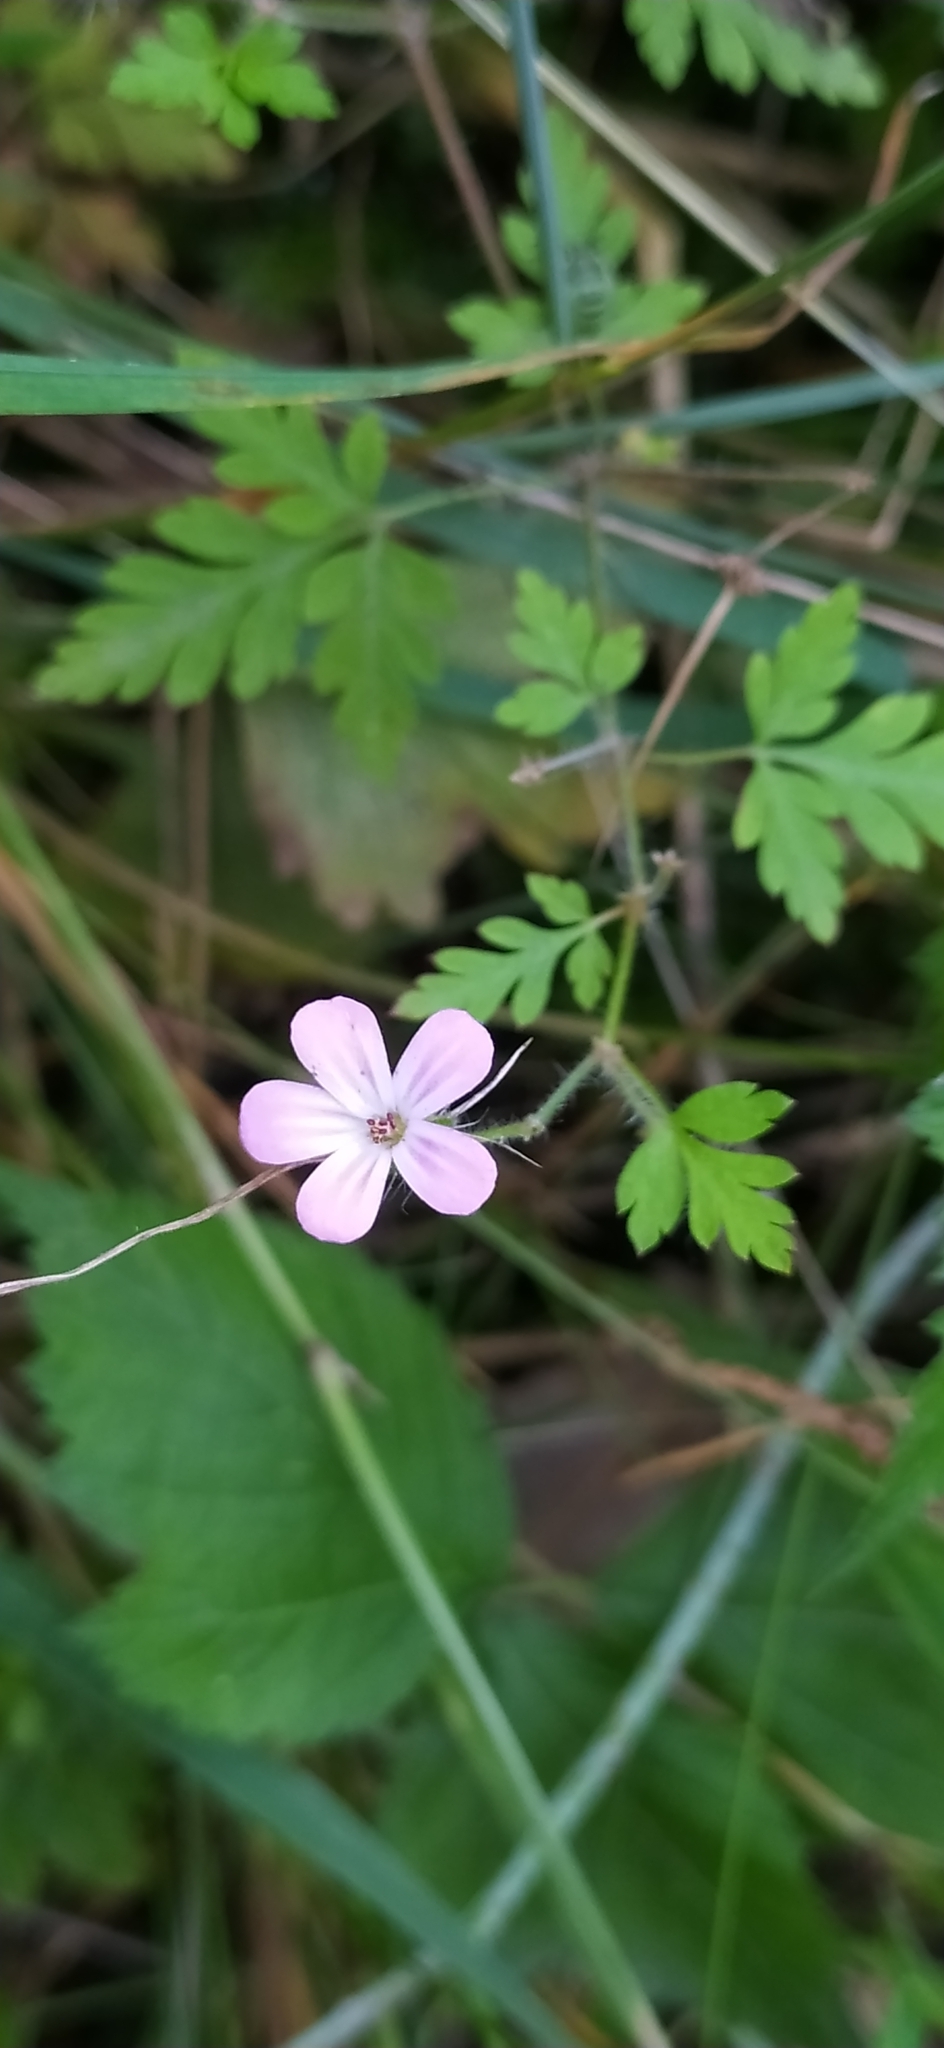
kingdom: Plantae
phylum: Tracheophyta
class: Magnoliopsida
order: Geraniales
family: Geraniaceae
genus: Geranium
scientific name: Geranium robertianum
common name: Herb-robert
